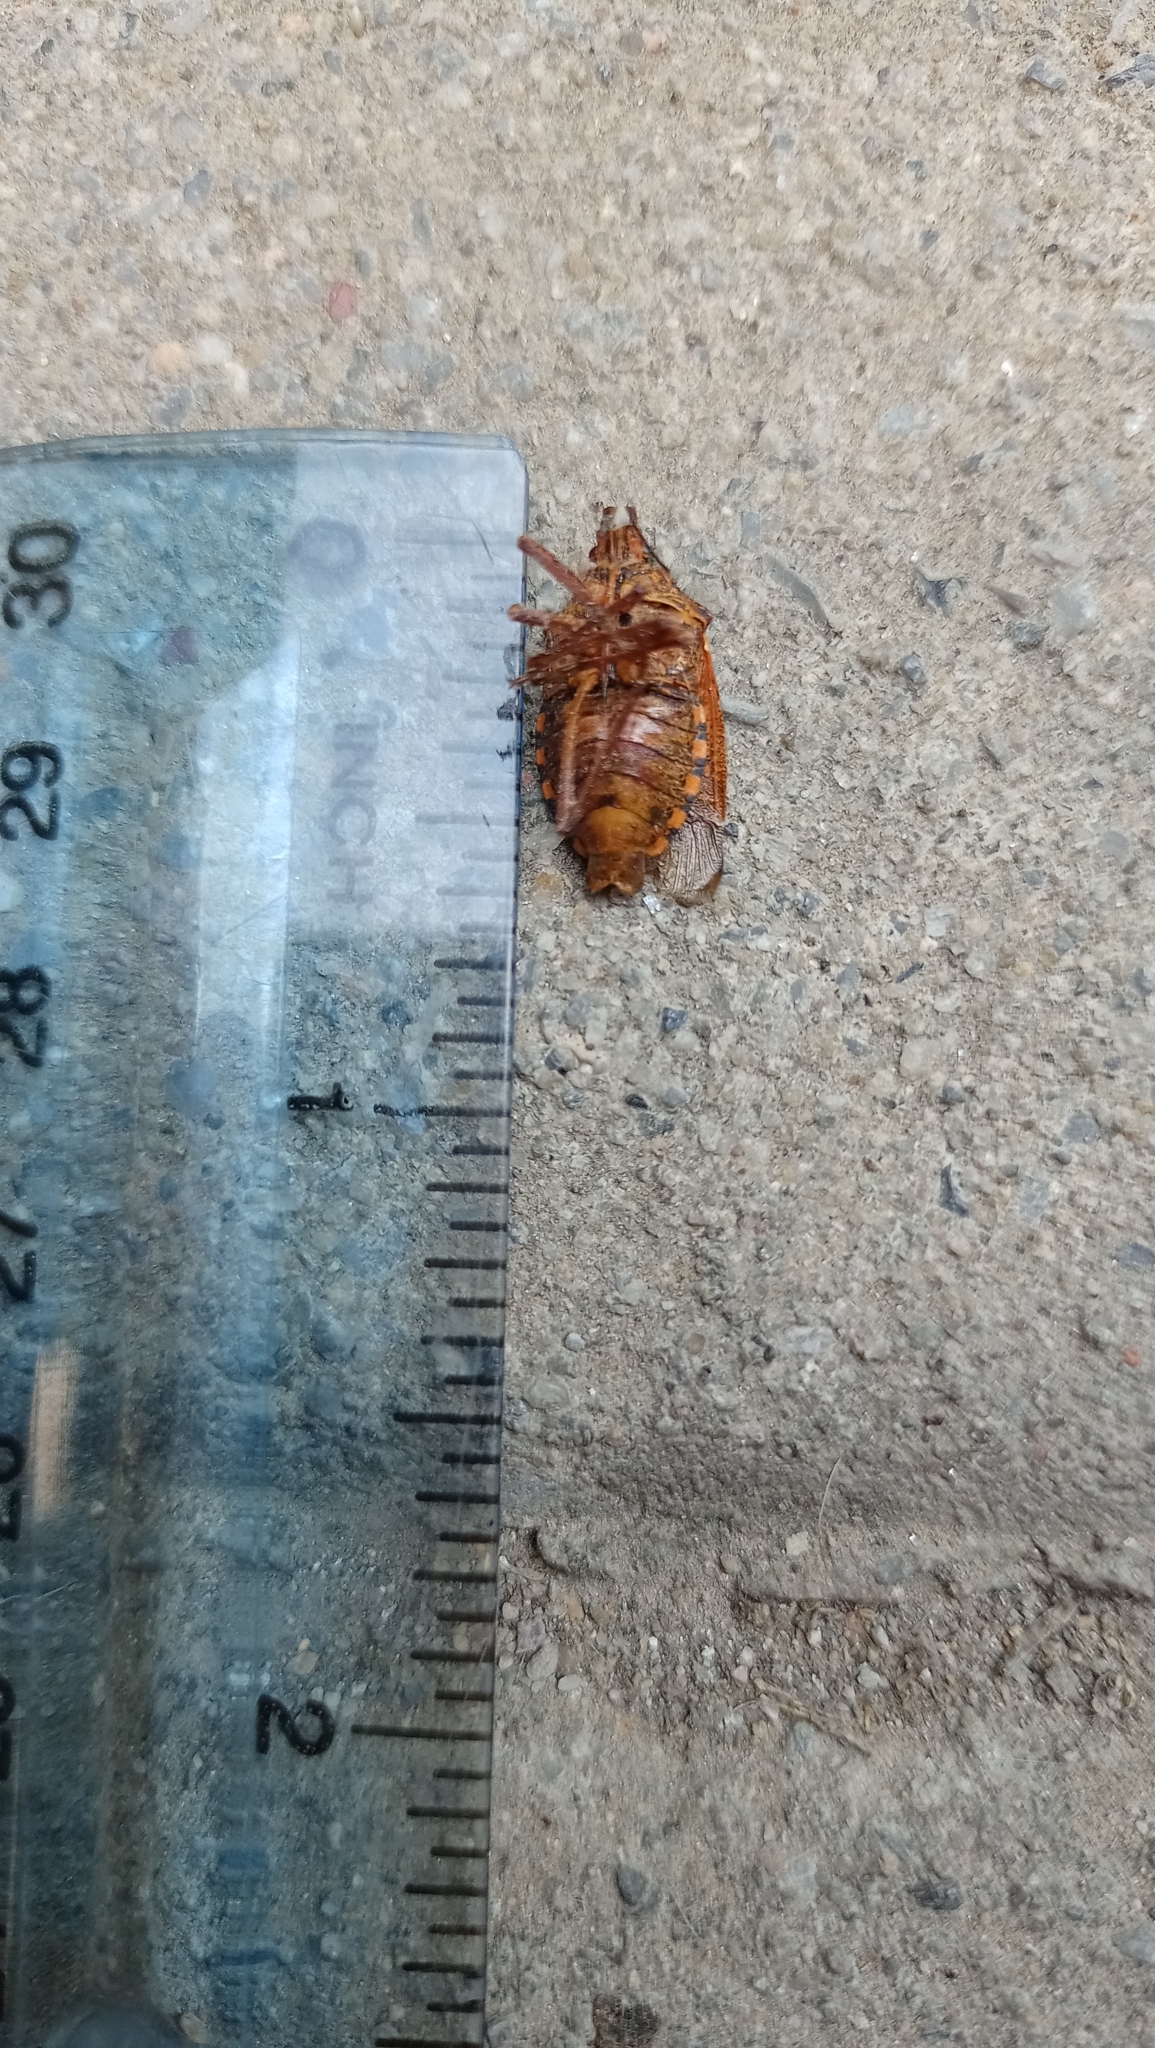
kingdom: Animalia
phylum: Arthropoda
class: Insecta
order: Hemiptera
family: Pentatomidae
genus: Apodiphus
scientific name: Apodiphus
